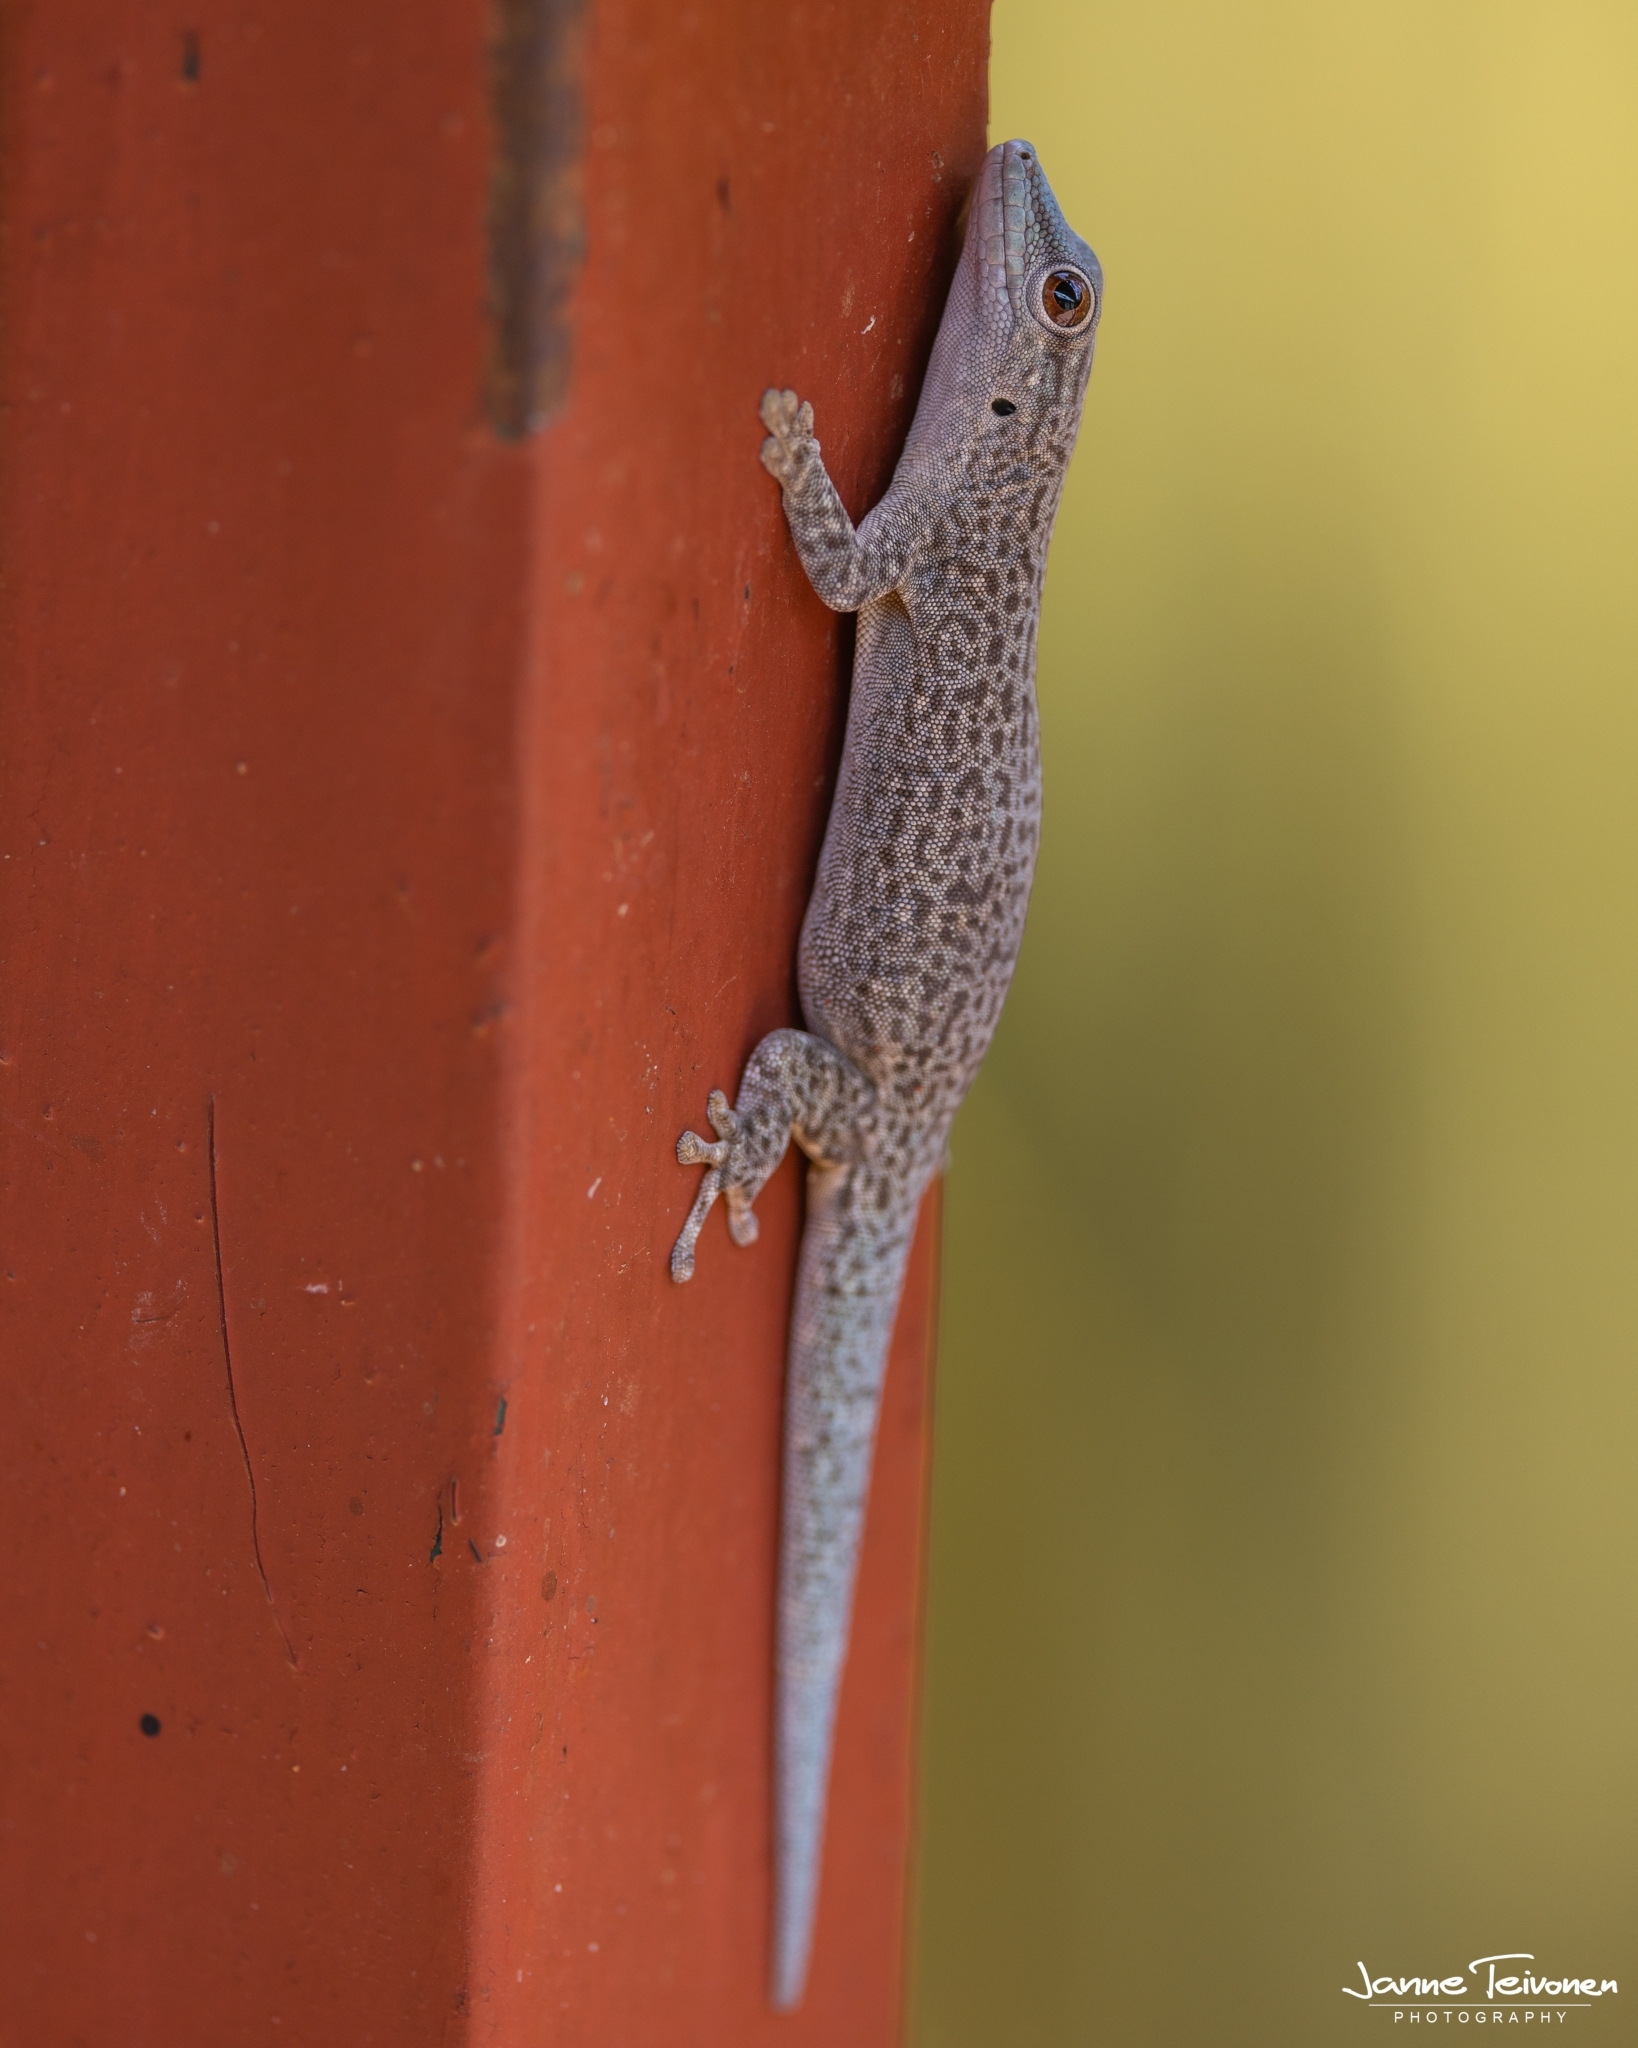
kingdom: Animalia
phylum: Chordata
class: Squamata
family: Gekkonidae
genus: Phelsuma
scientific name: Phelsuma mutabilis
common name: Thick tail gecko
